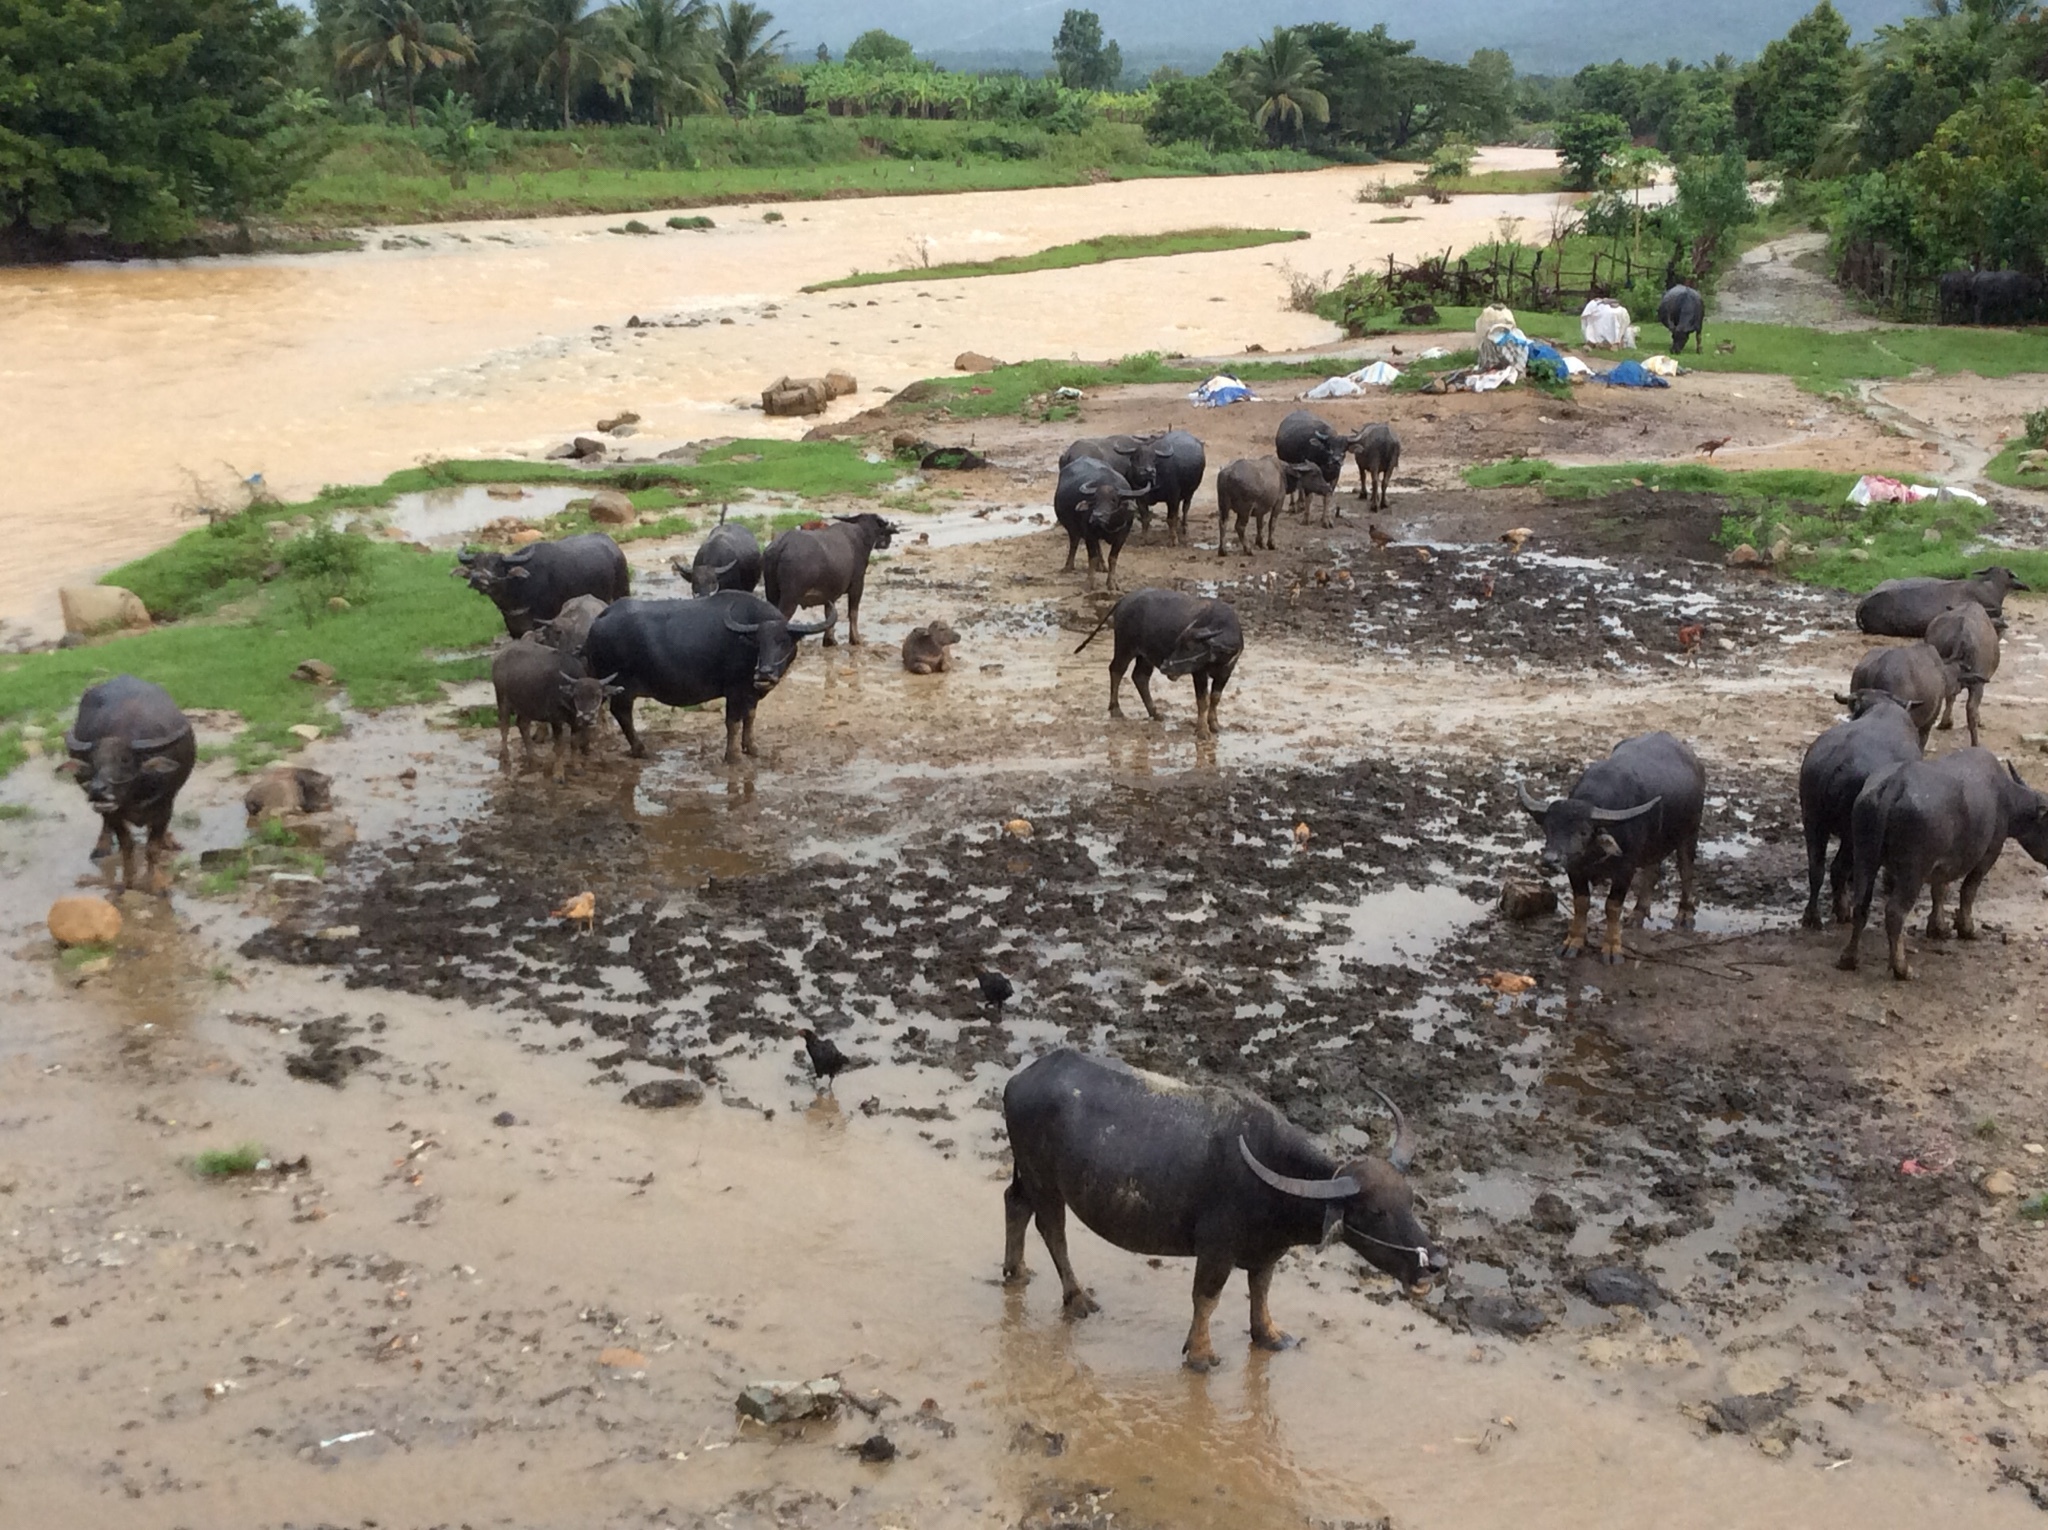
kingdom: Animalia
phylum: Chordata
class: Mammalia
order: Artiodactyla
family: Bovidae
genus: Bubalus
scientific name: Bubalus bubalis
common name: Water buffalo
